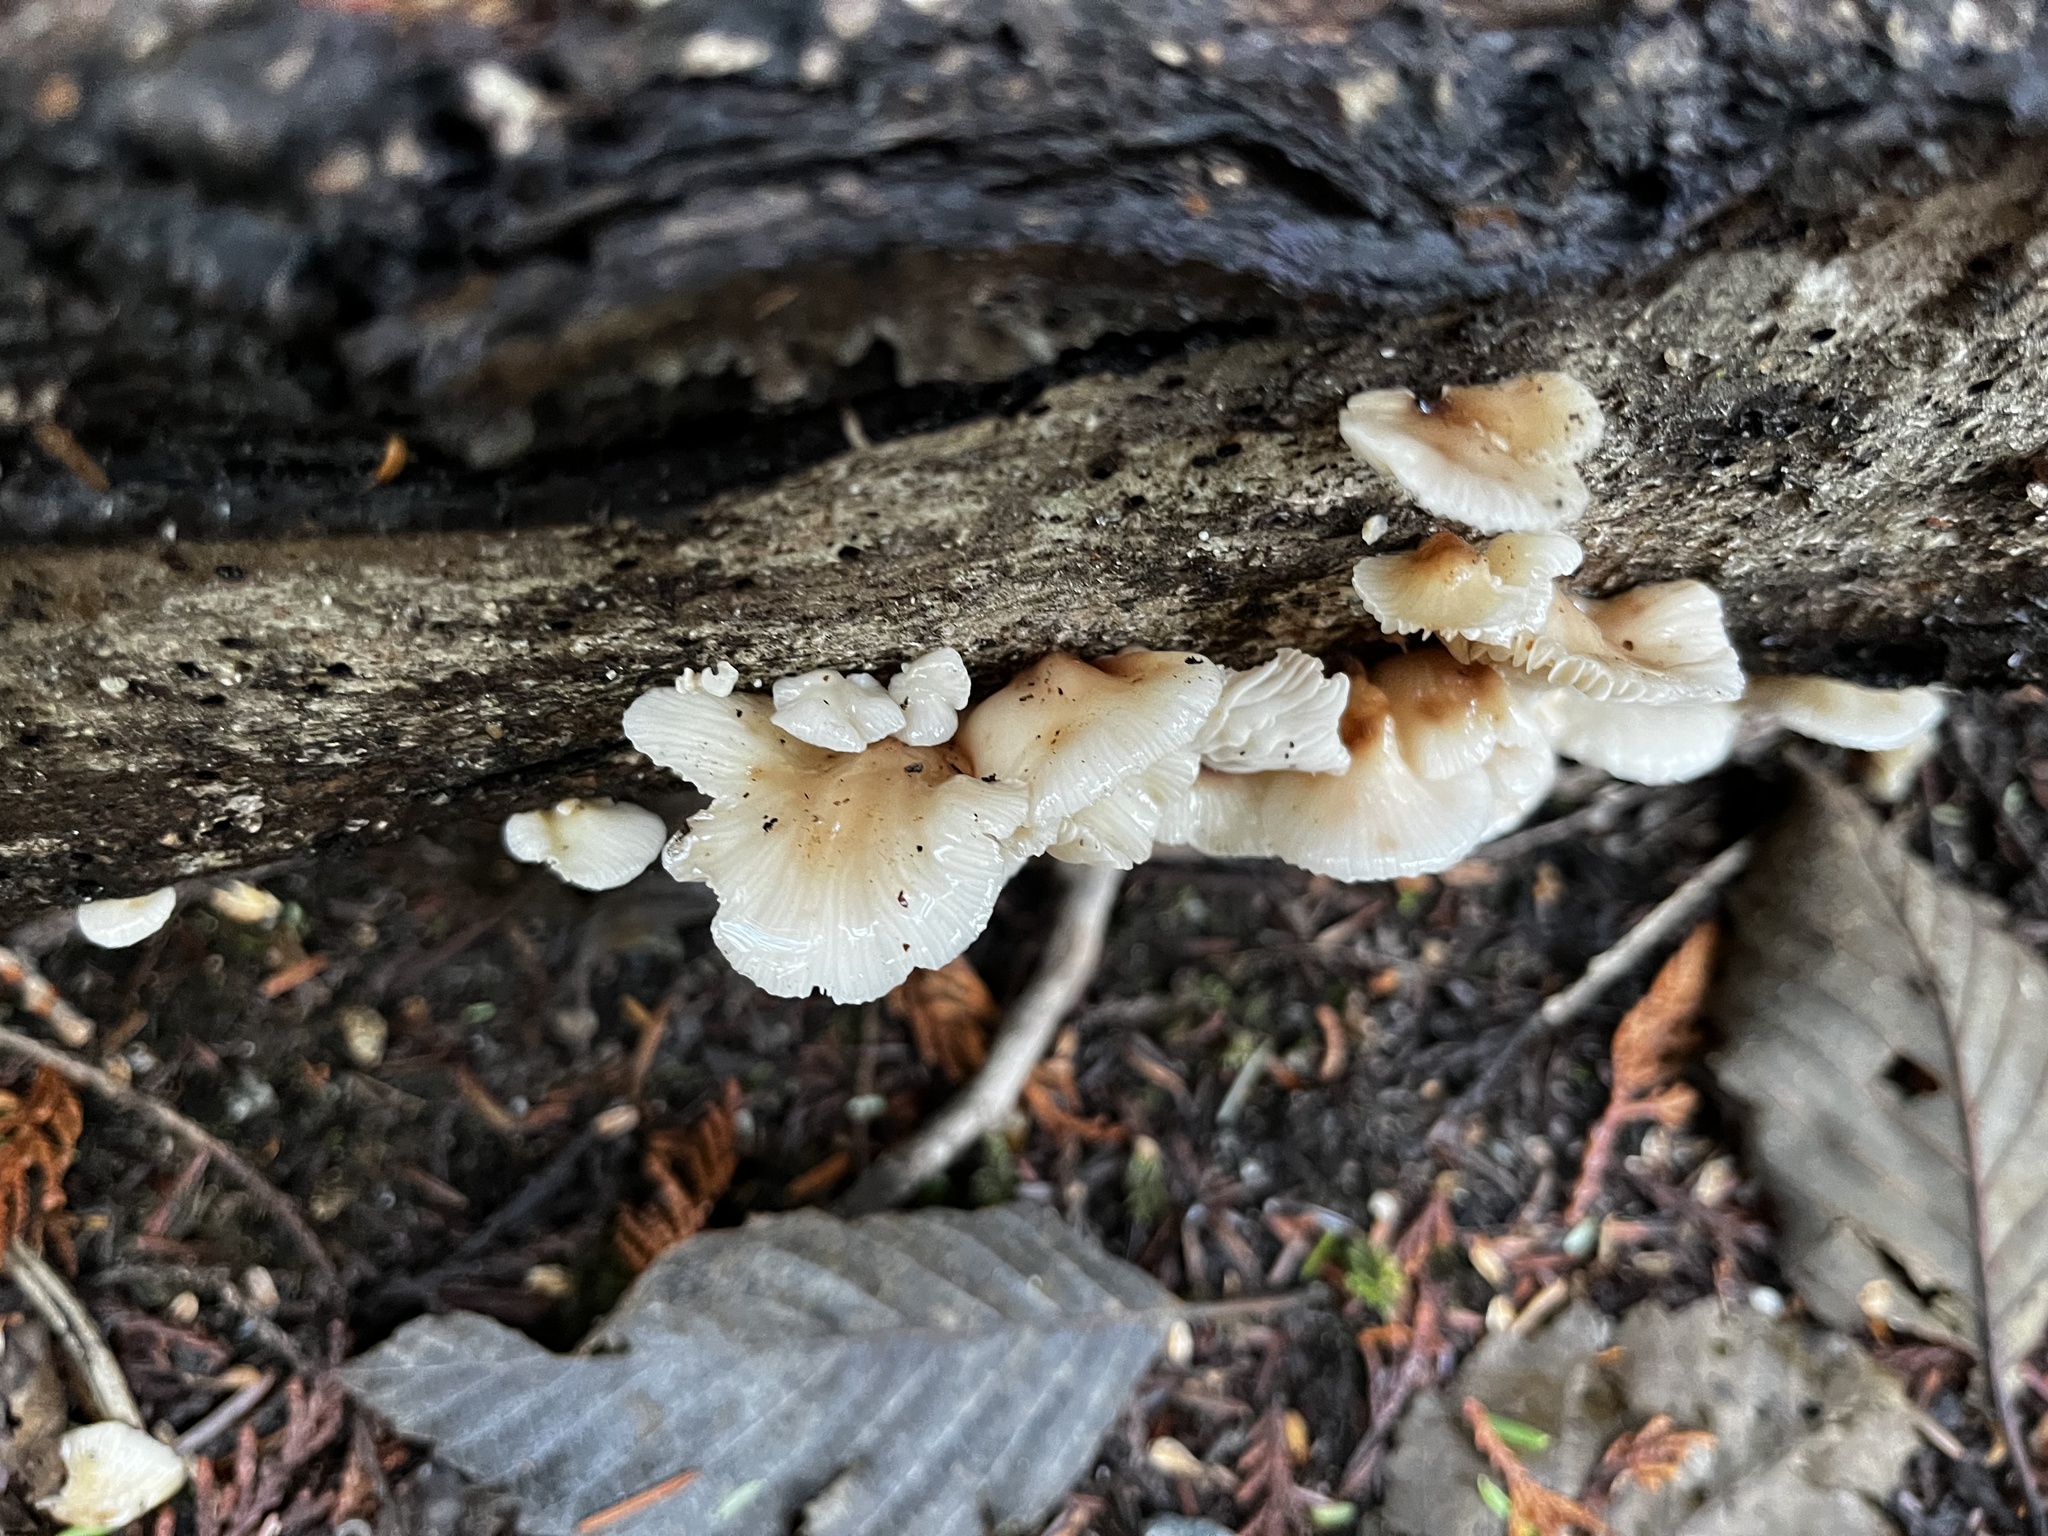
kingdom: Fungi
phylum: Basidiomycota
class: Agaricomycetes
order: Agaricales
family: Mycenaceae
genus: Panellus
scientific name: Panellus longinquus
